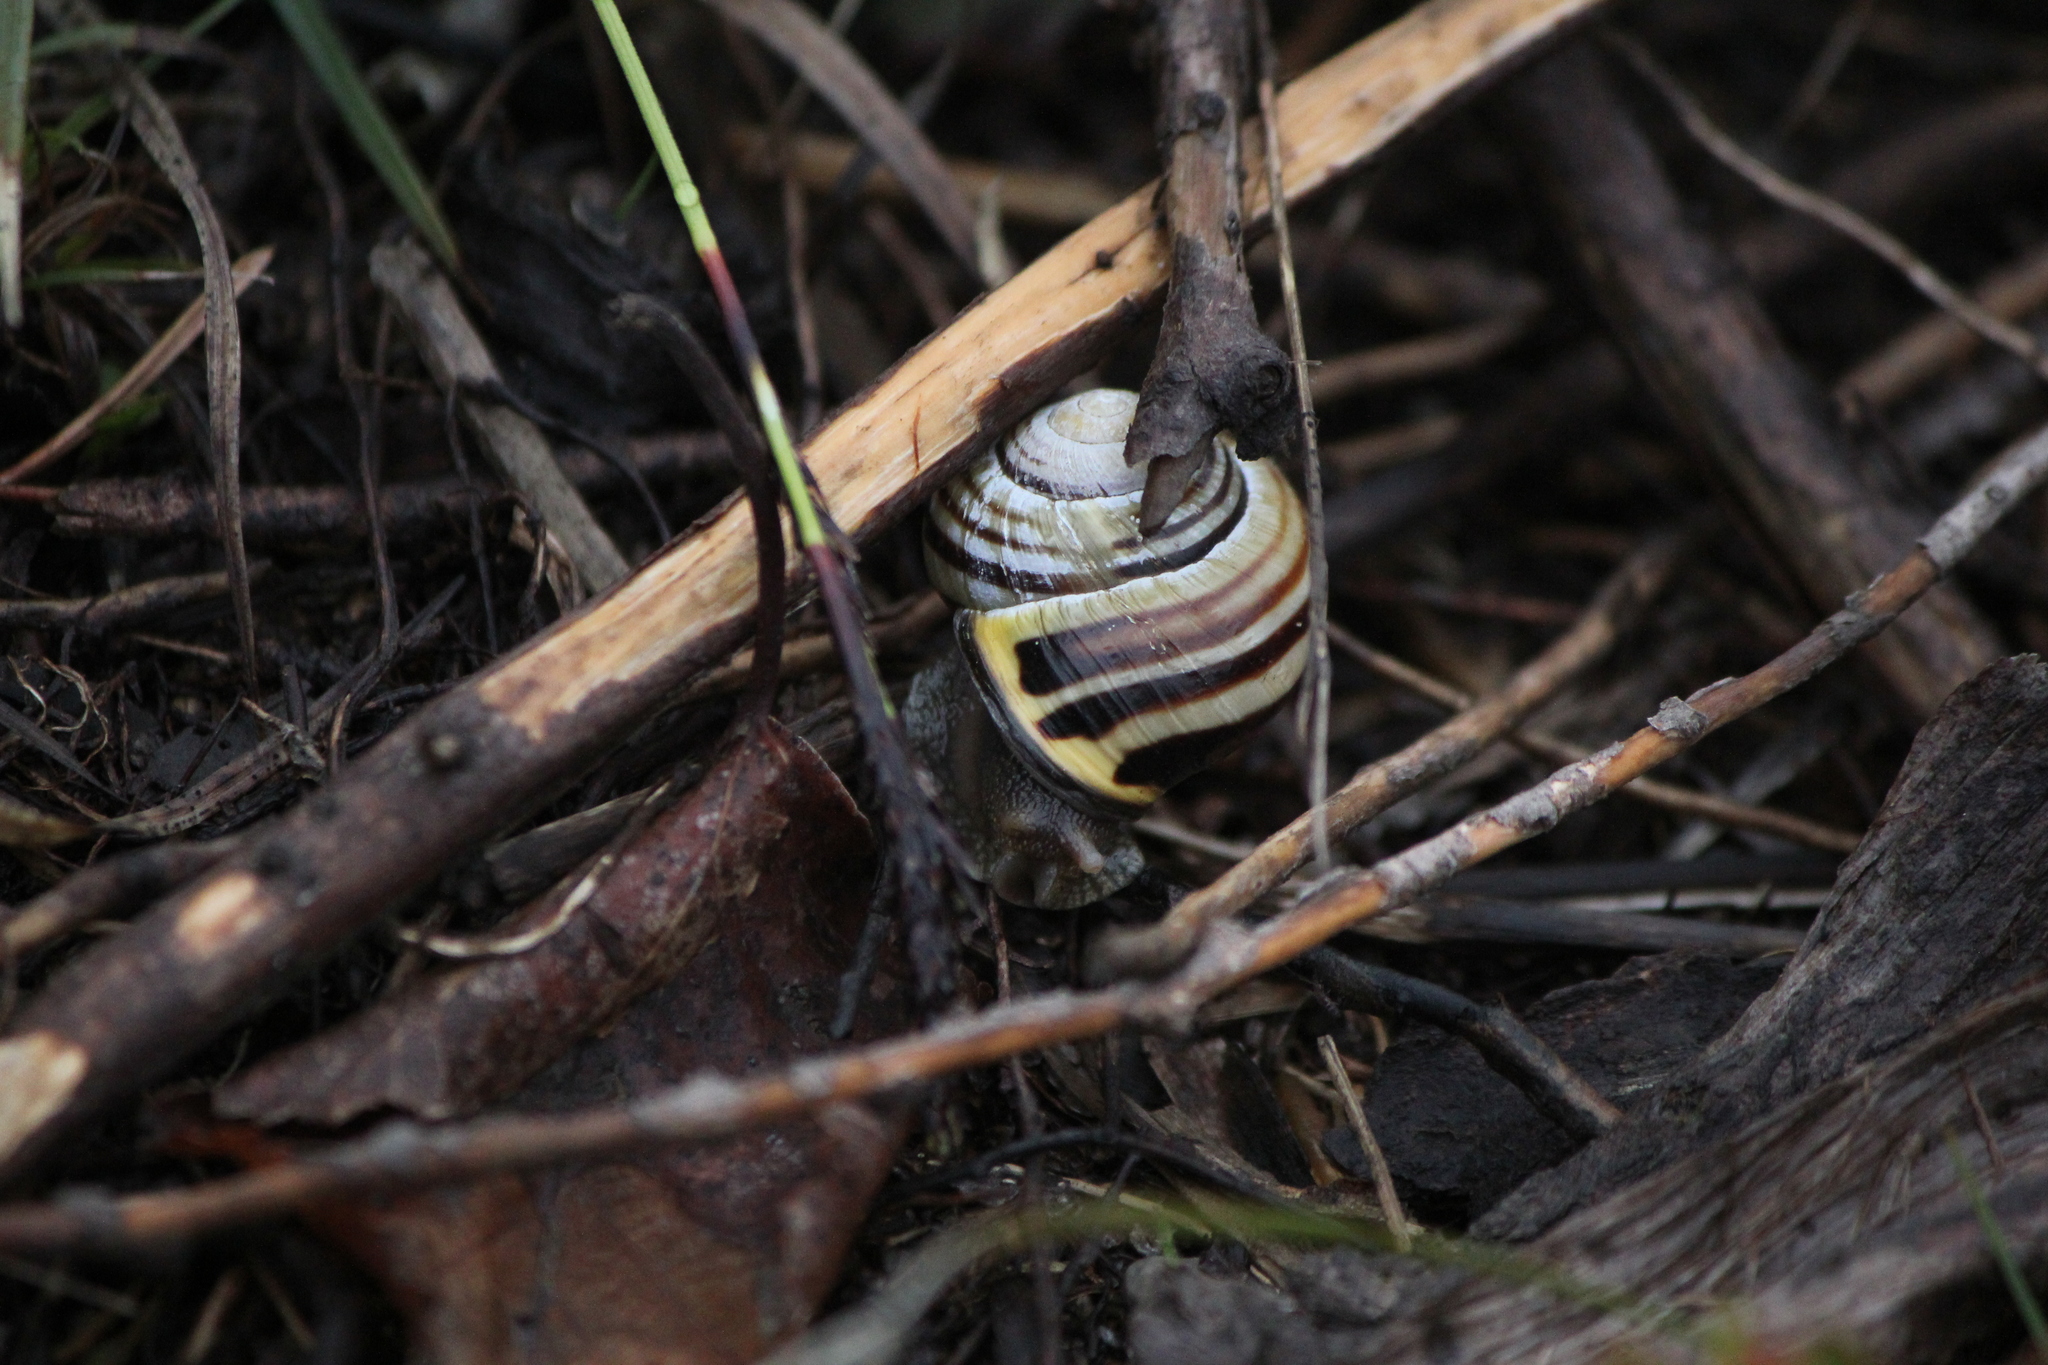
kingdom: Animalia
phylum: Mollusca
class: Gastropoda
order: Stylommatophora
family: Helicidae
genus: Cepaea
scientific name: Cepaea nemoralis
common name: Grovesnail
